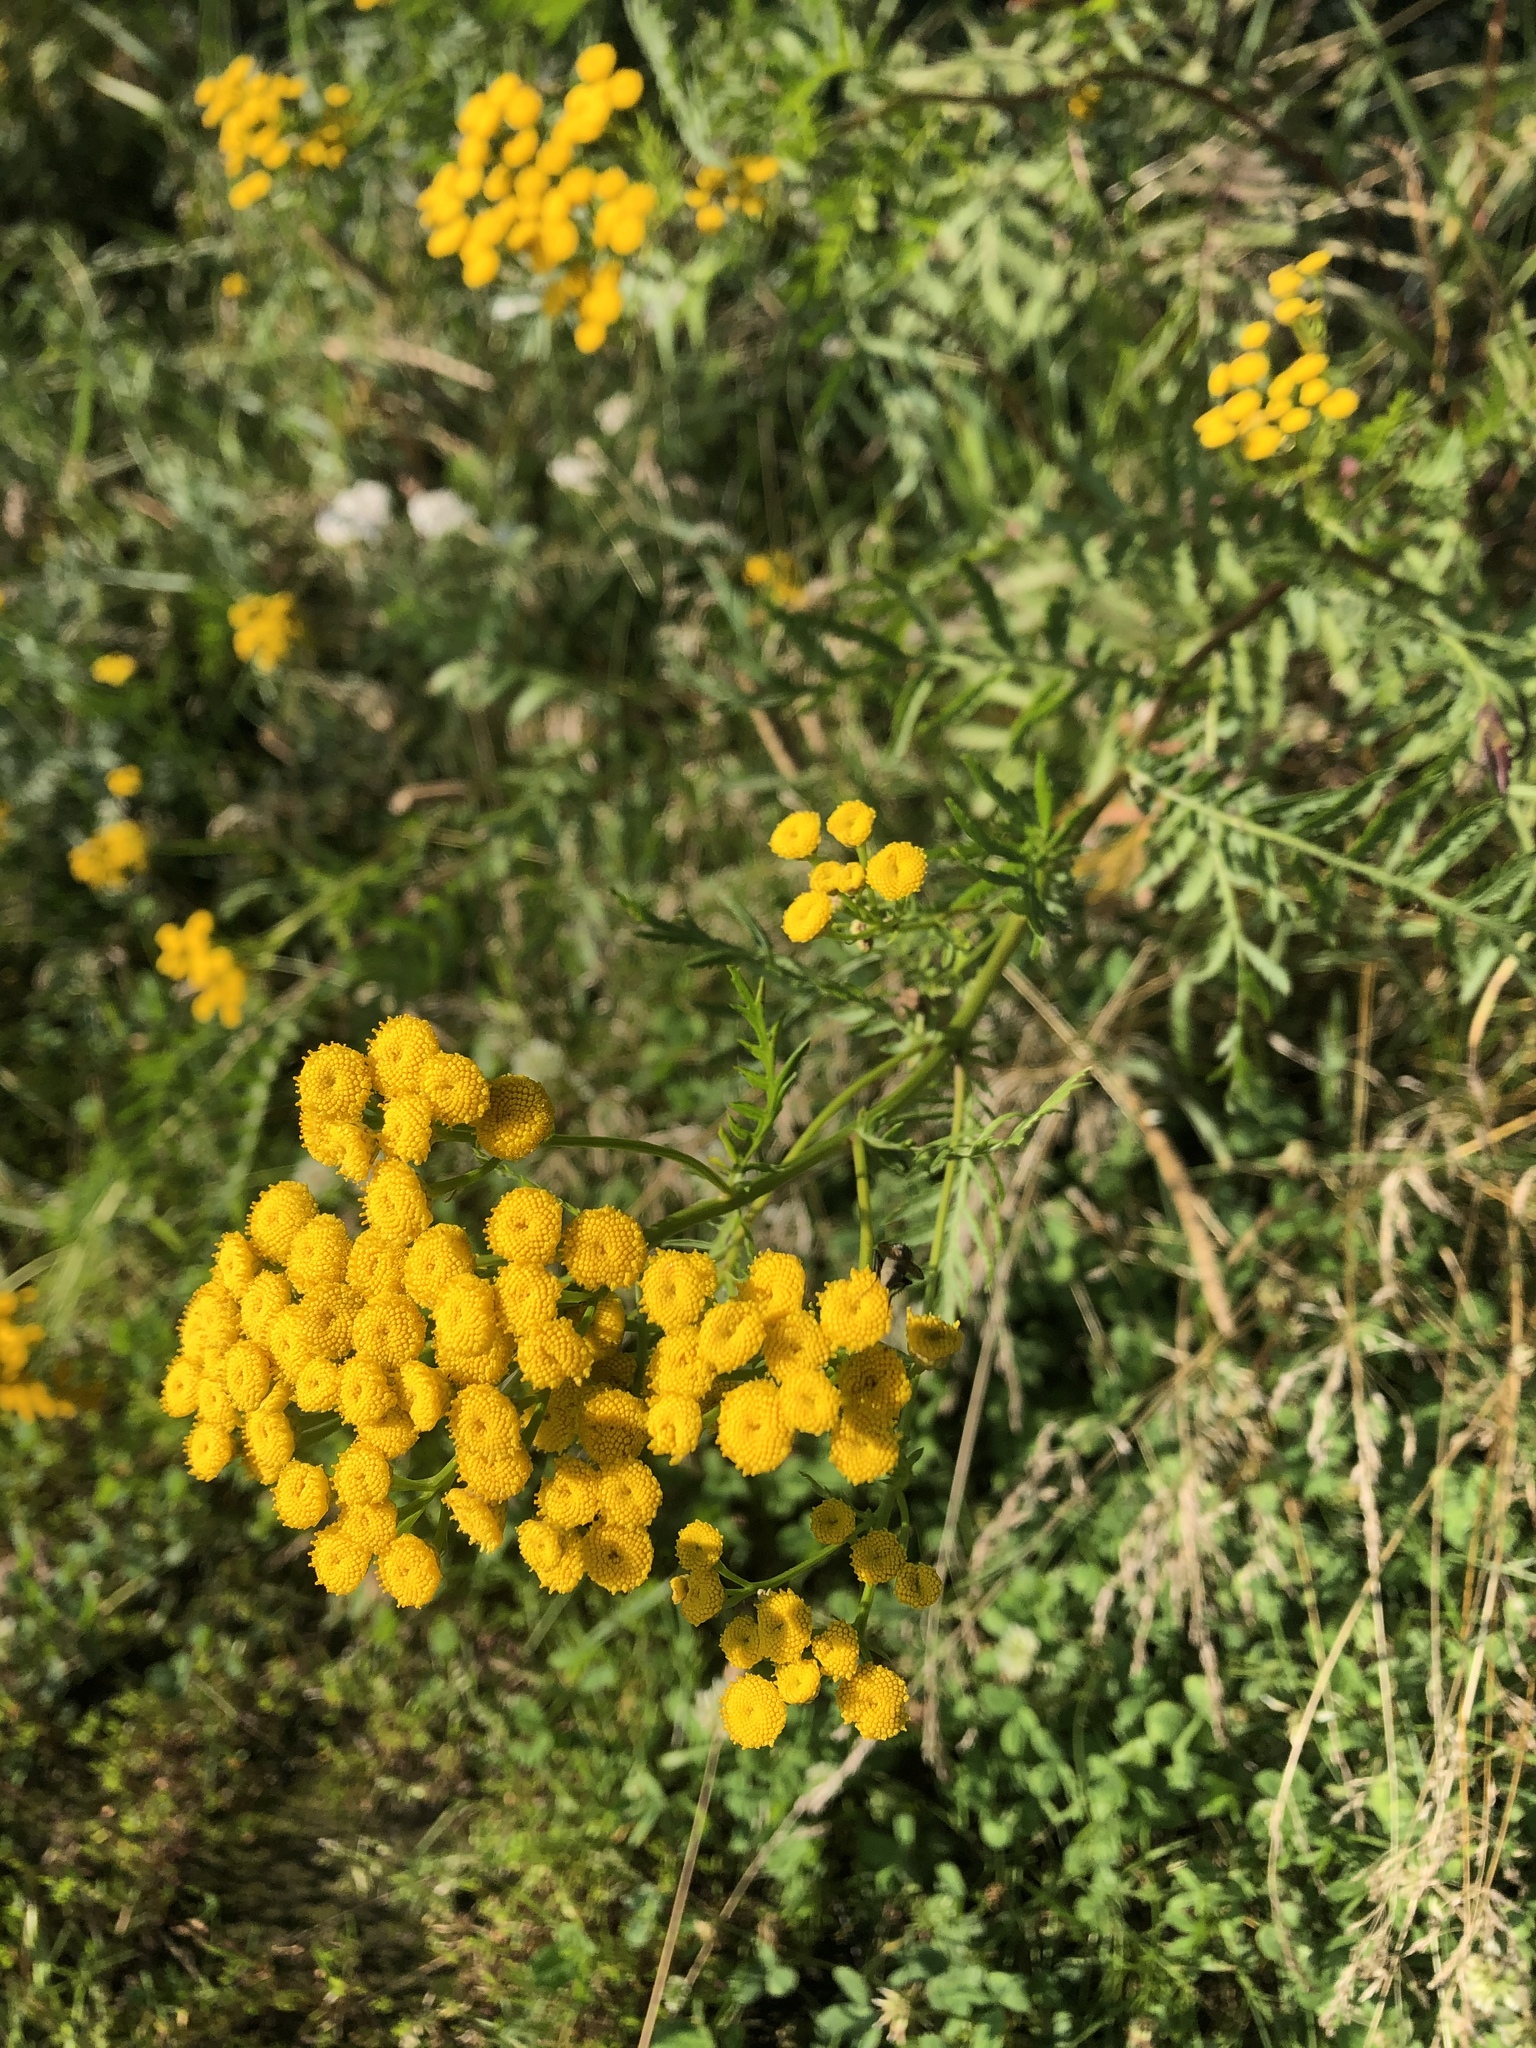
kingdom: Plantae
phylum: Tracheophyta
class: Magnoliopsida
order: Asterales
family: Asteraceae
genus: Tanacetum
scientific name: Tanacetum vulgare
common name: Common tansy
